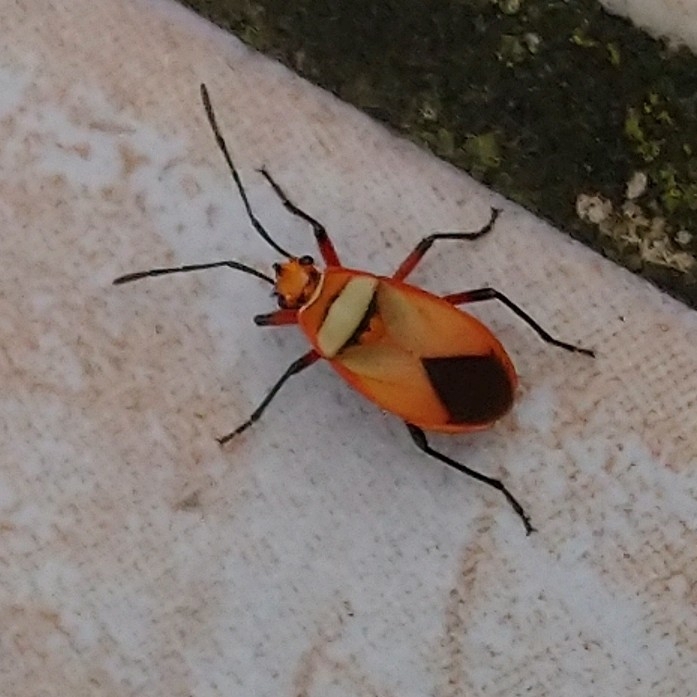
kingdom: Animalia
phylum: Arthropoda
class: Insecta
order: Hemiptera
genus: Cenaeus
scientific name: Cenaeus
